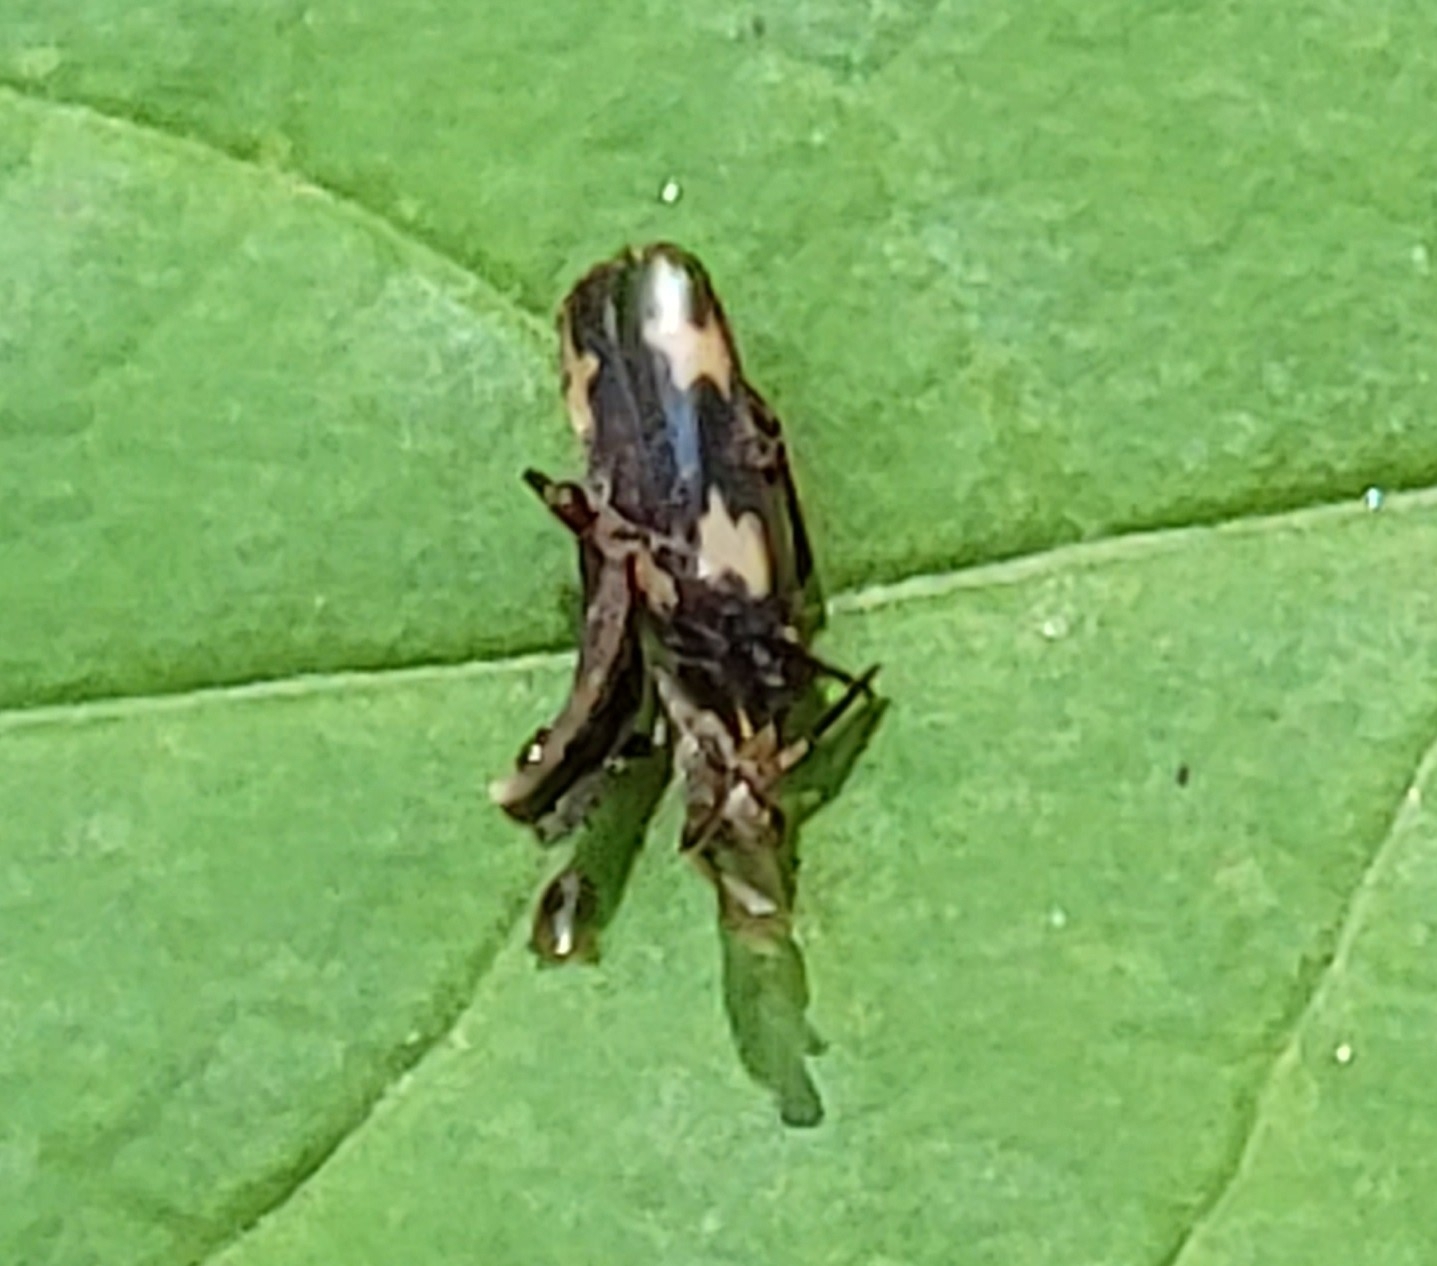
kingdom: Animalia
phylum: Arthropoda
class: Insecta
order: Coleoptera
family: Melandryidae
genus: Dircaea
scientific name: Dircaea liturata
